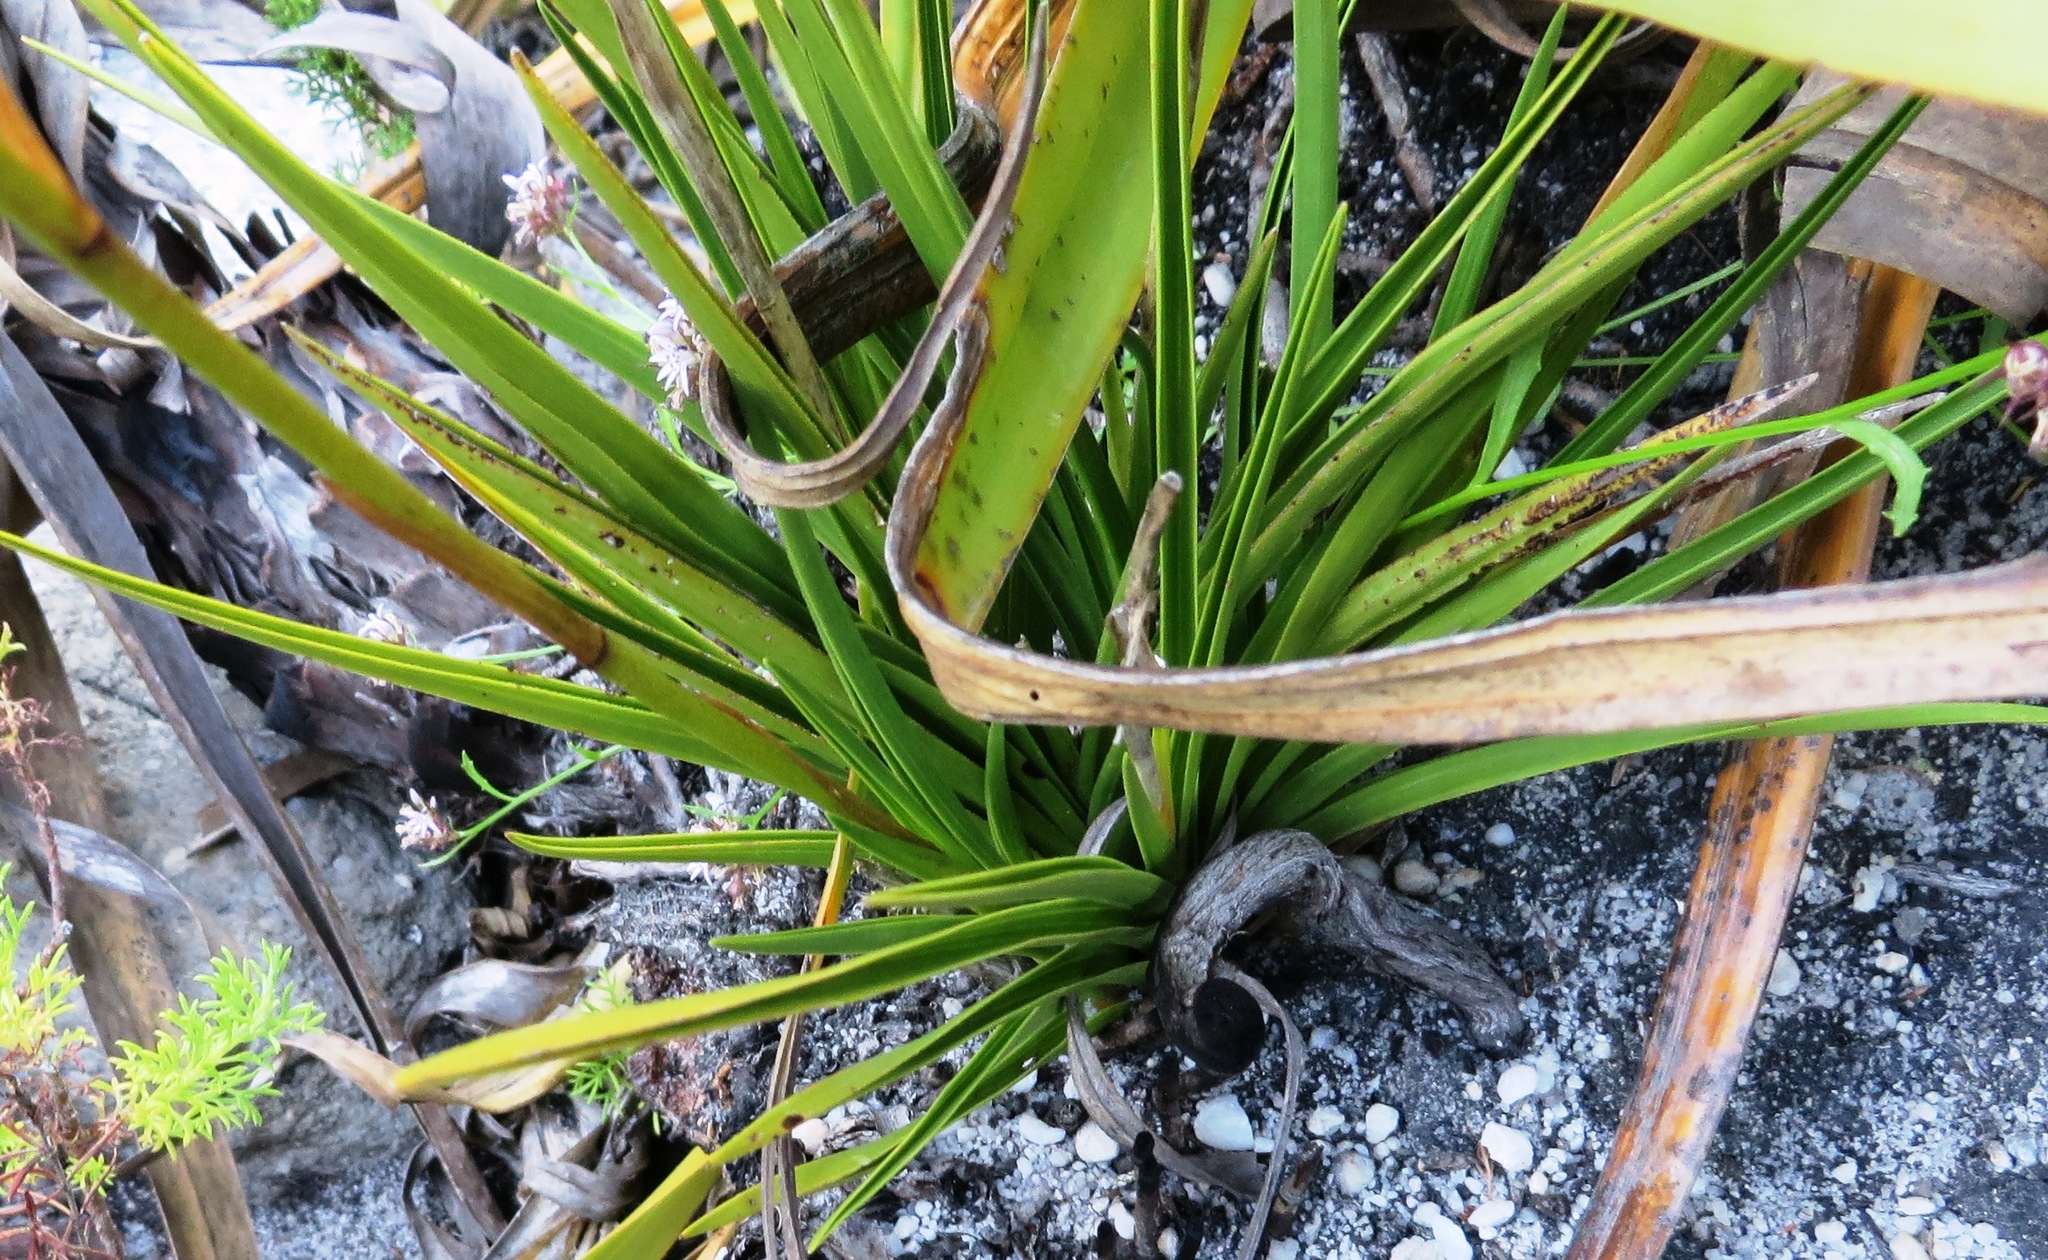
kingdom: Plantae
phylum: Tracheophyta
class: Liliopsida
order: Asparagales
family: Orchidaceae
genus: Eulophia
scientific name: Eulophia tristis
